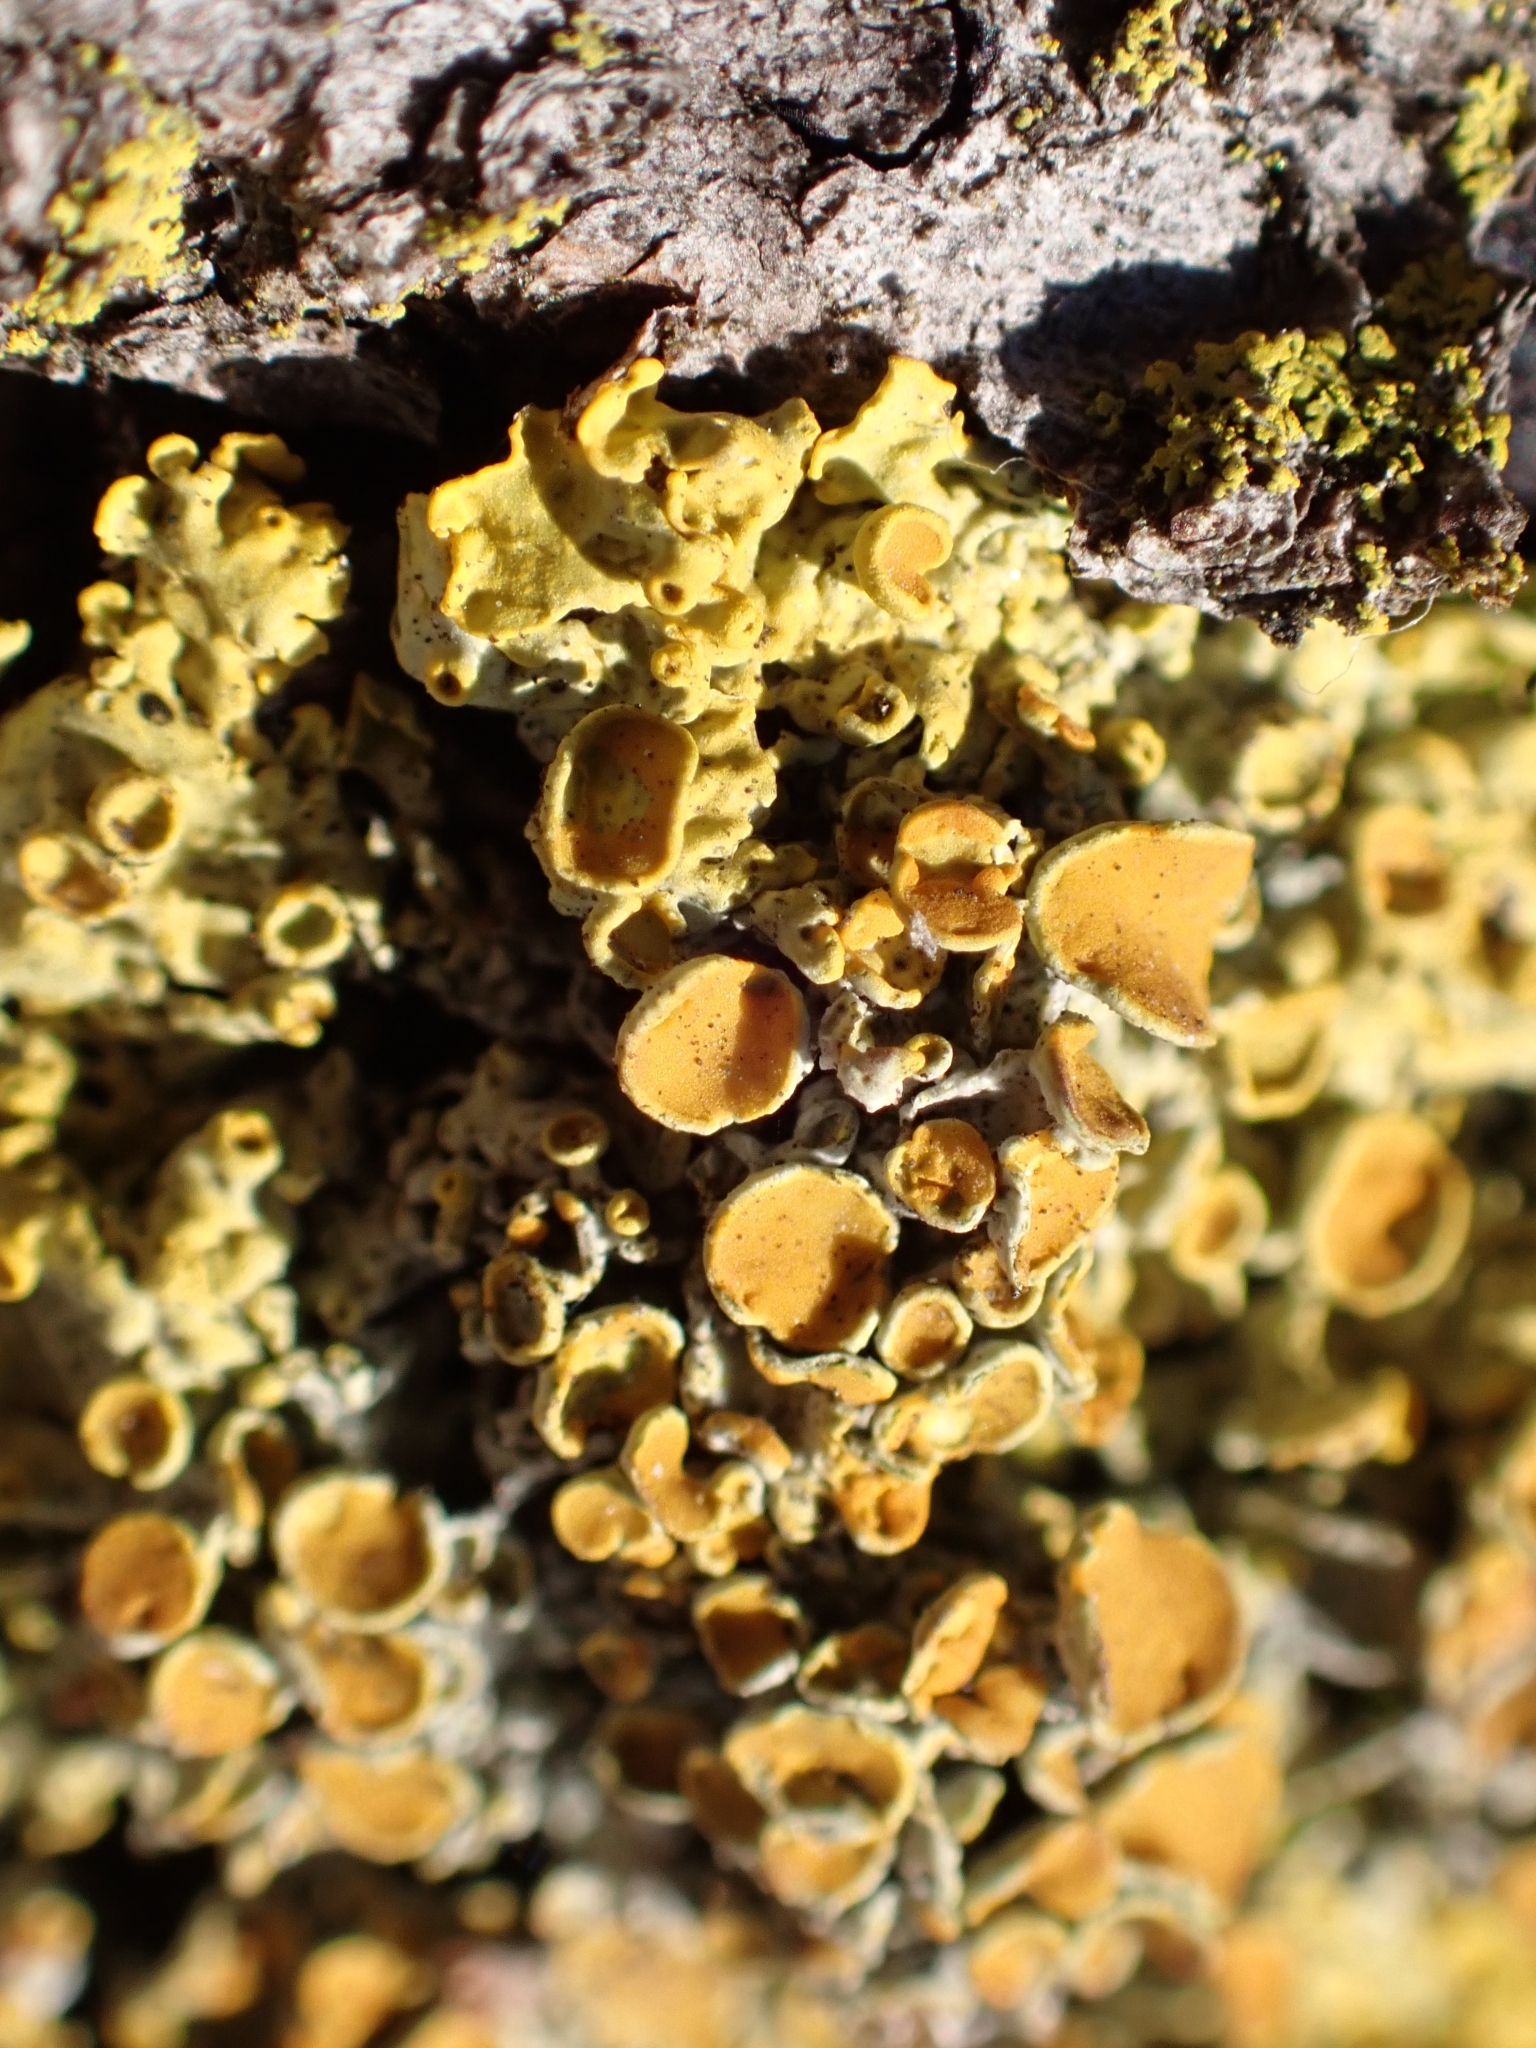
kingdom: Fungi
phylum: Ascomycota
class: Lecanoromycetes
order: Teloschistales
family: Teloschistaceae
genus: Xanthoria
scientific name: Xanthoria parietina
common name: Common orange lichen
